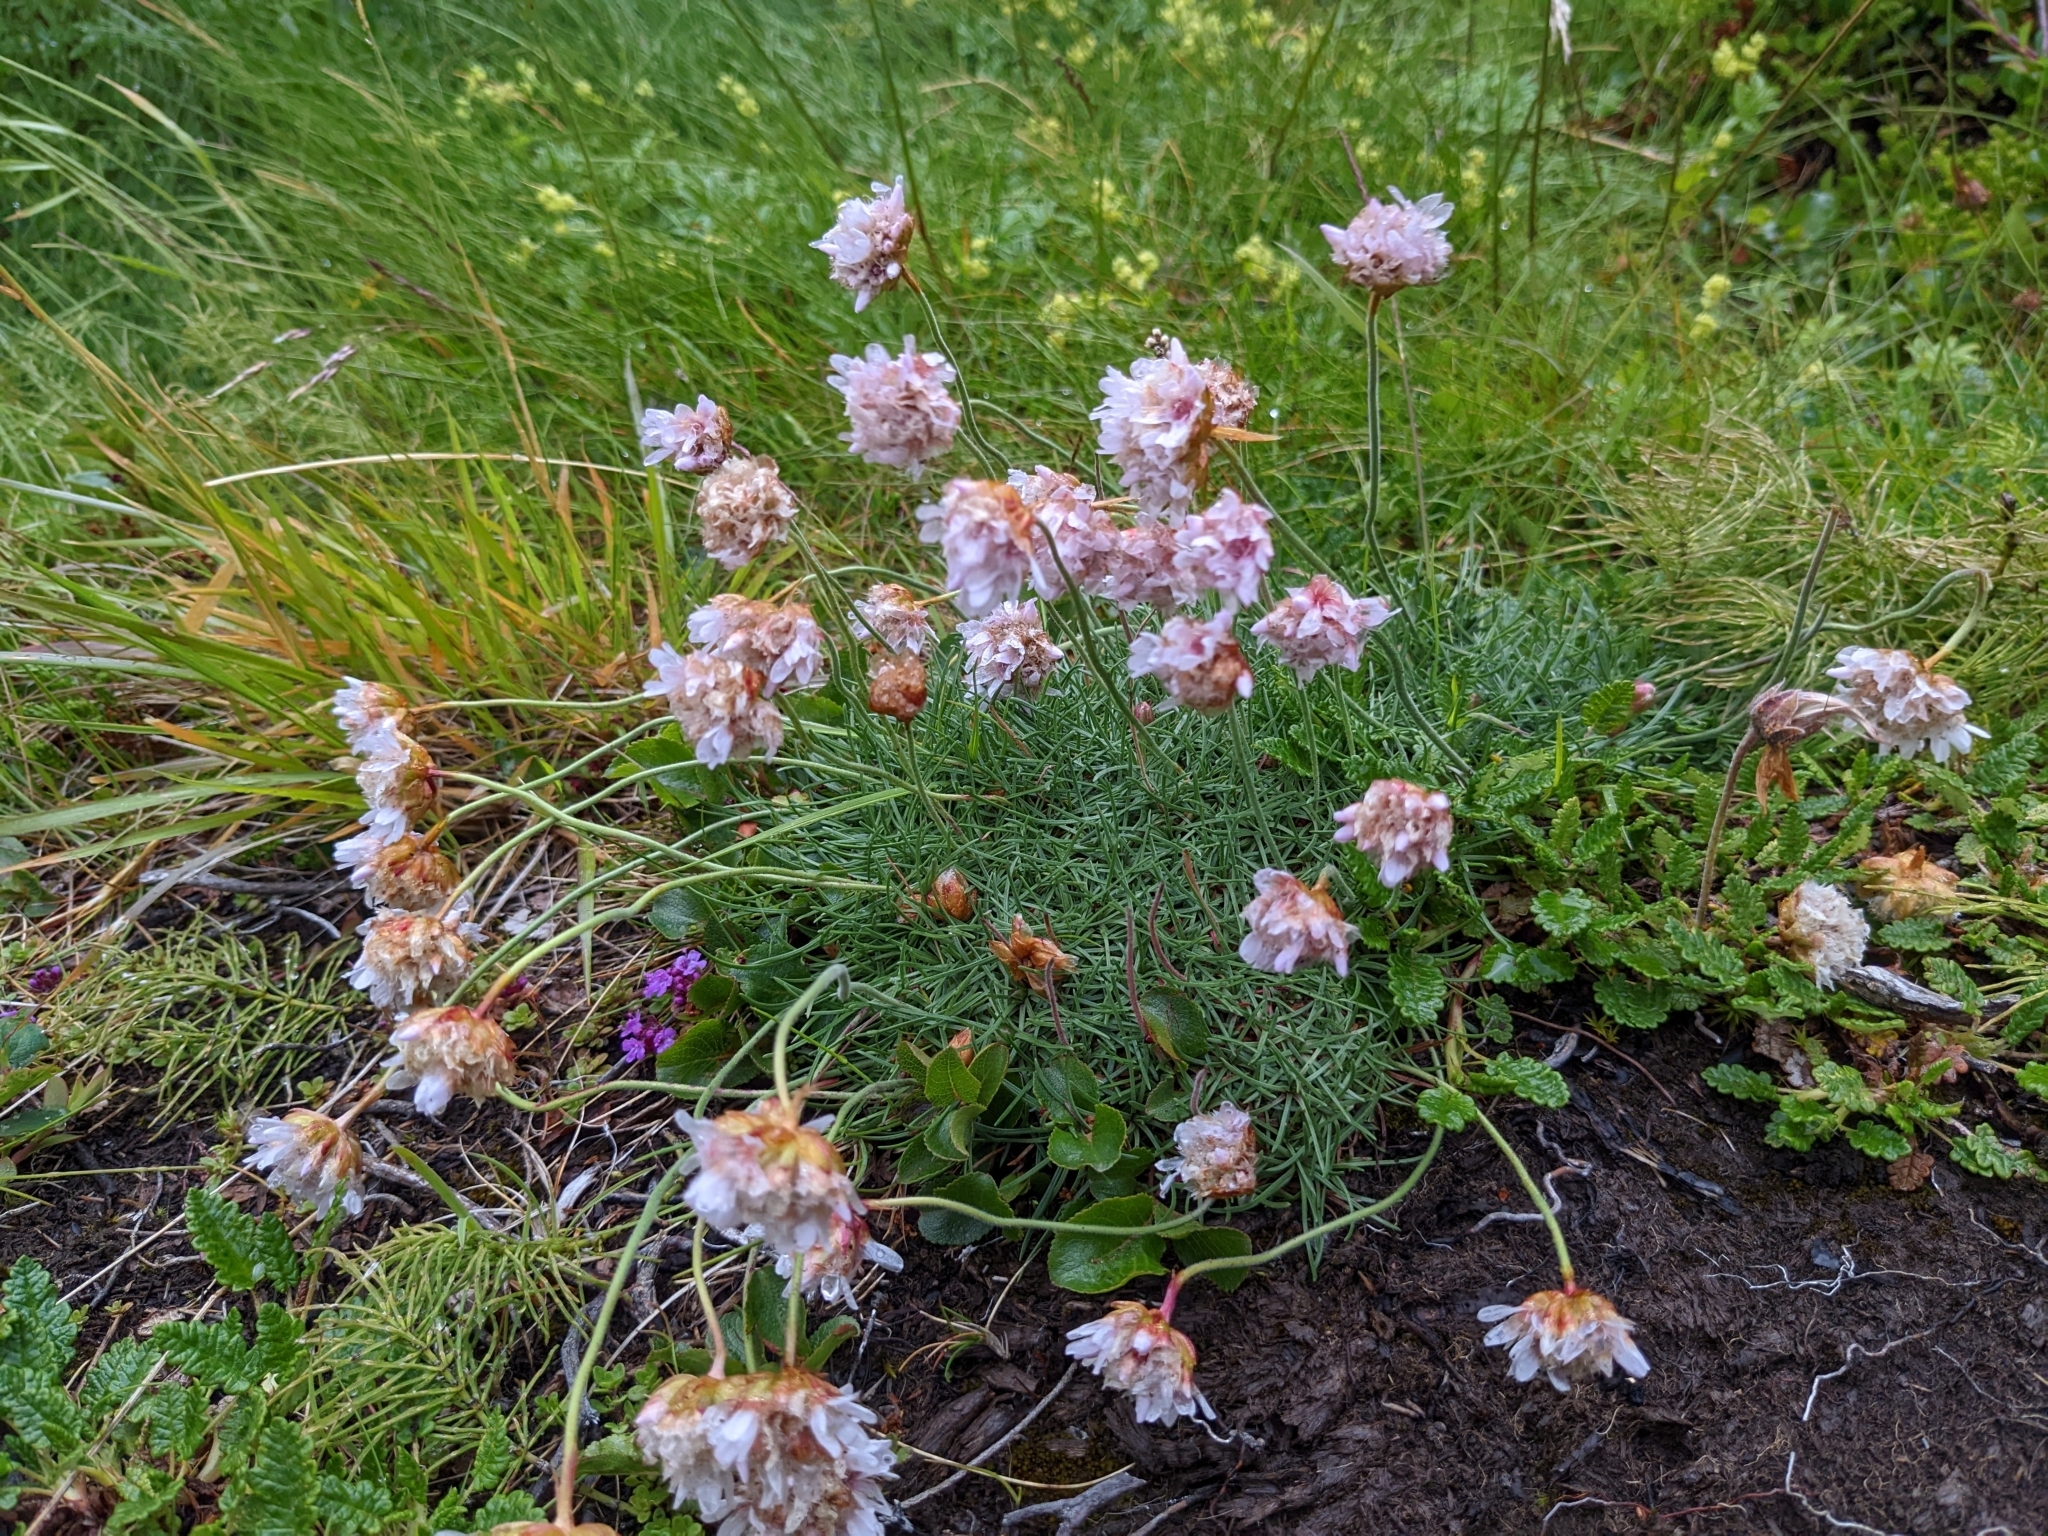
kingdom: Plantae
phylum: Tracheophyta
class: Magnoliopsida
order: Caryophyllales
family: Plumbaginaceae
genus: Armeria
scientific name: Armeria maritima
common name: Thrift
